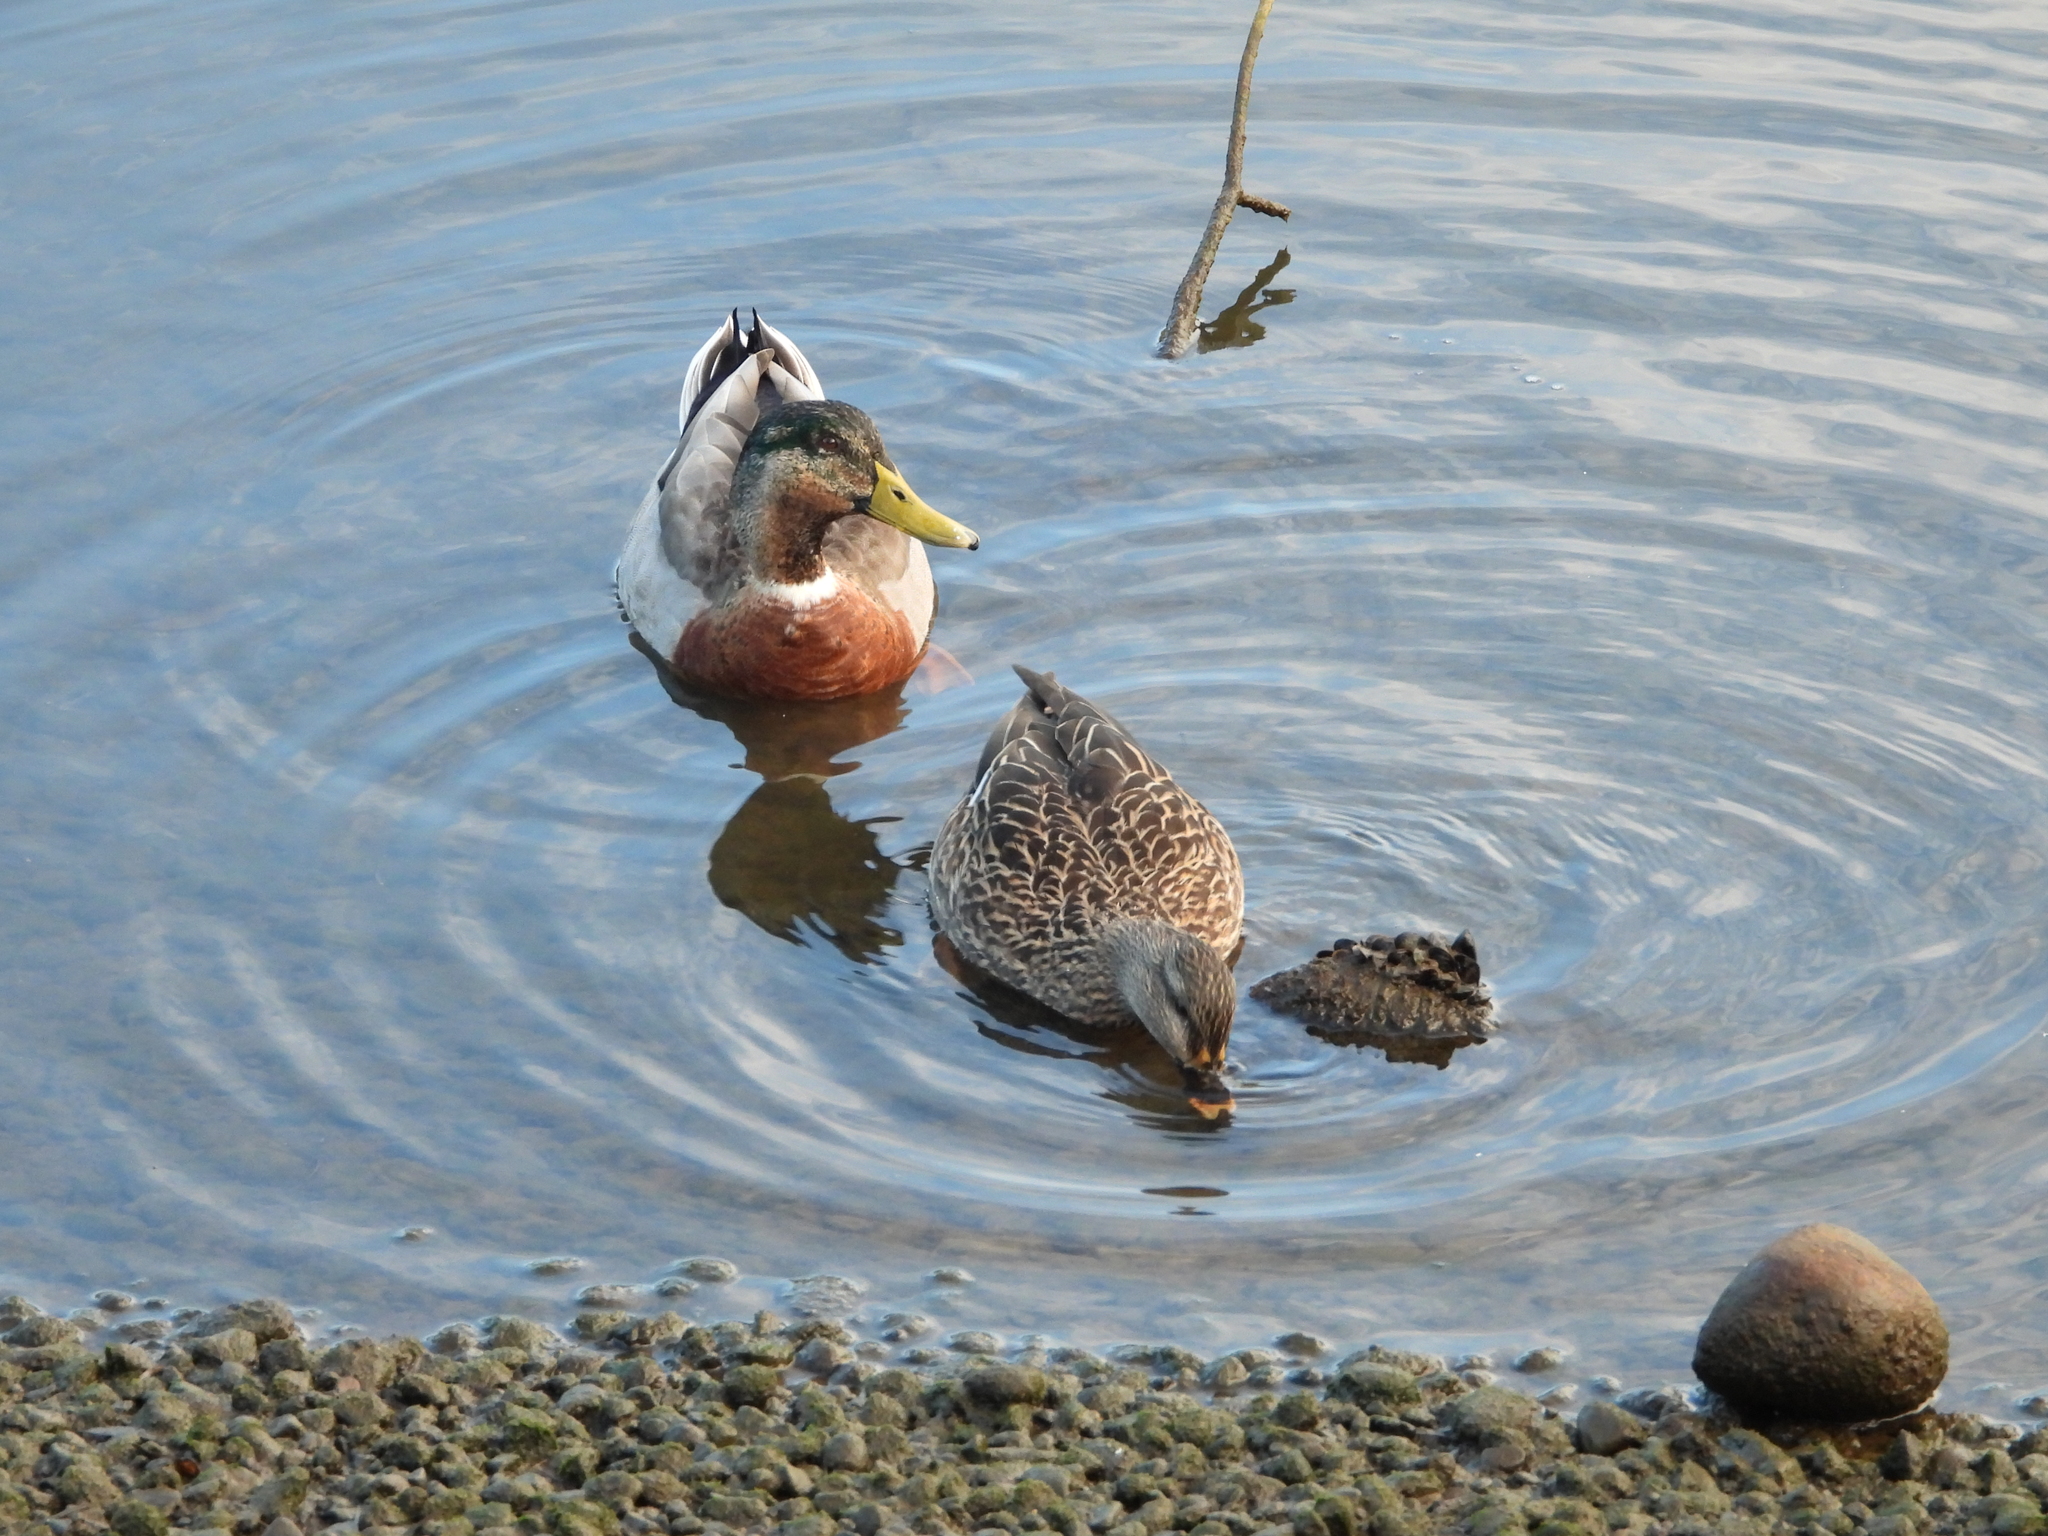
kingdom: Animalia
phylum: Chordata
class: Aves
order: Anseriformes
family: Anatidae
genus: Anas
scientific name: Anas platyrhynchos
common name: Mallard
